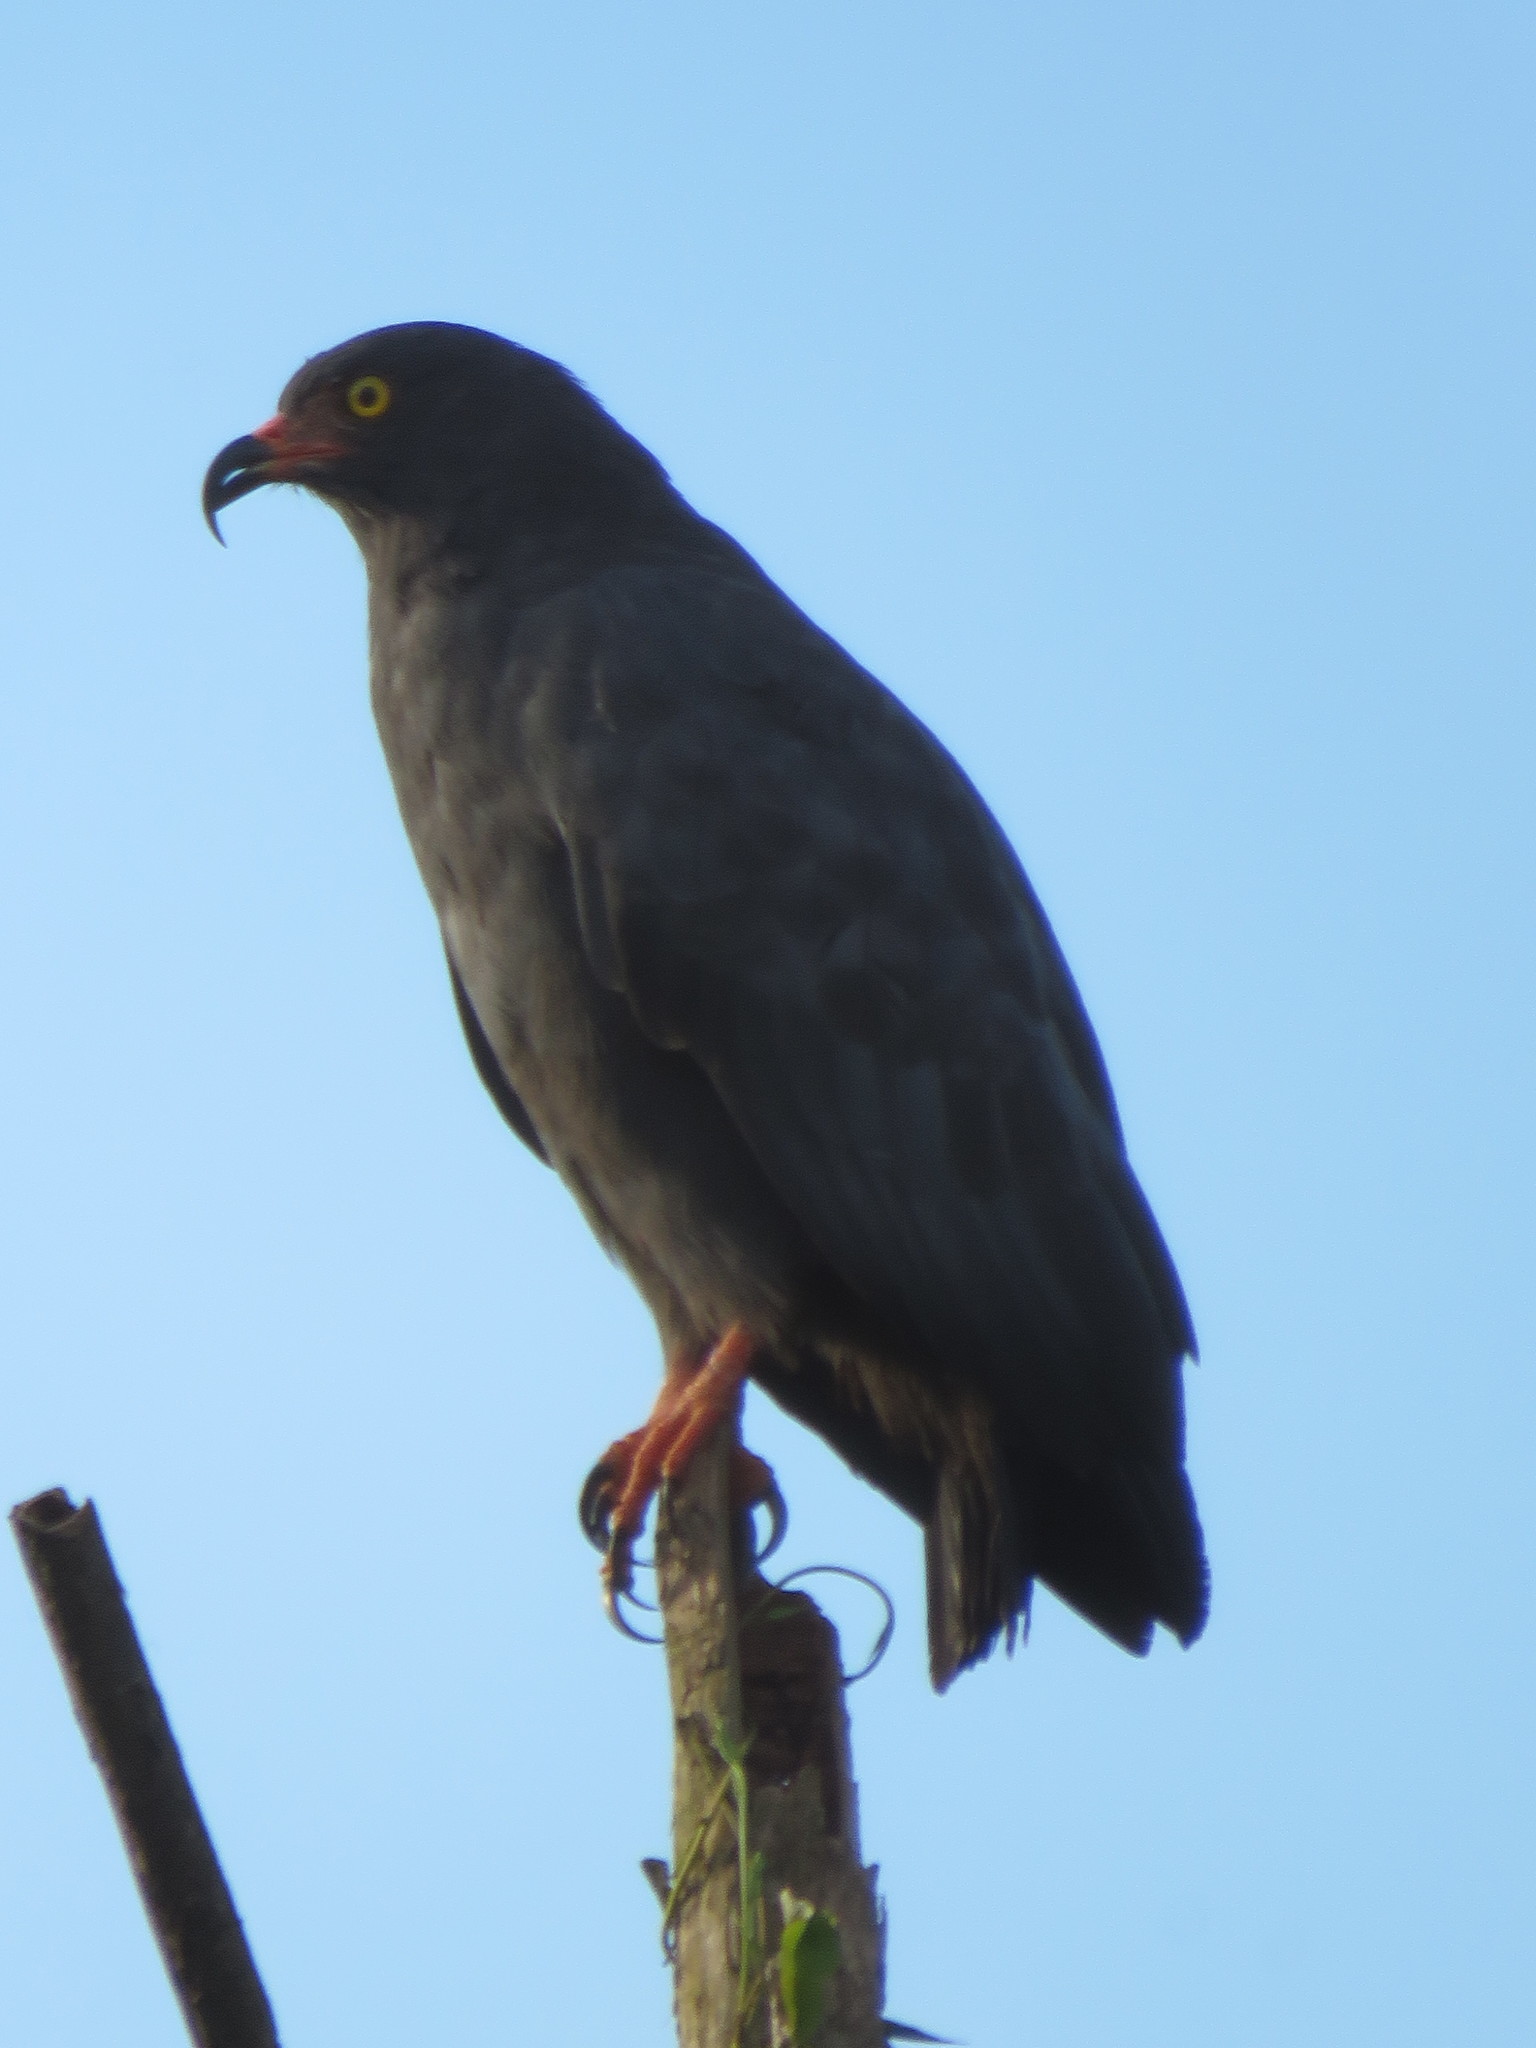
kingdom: Animalia
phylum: Chordata
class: Aves
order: Accipitriformes
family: Accipitridae
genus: Helicolestes
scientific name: Helicolestes hamatus
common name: Slender-billed kite
